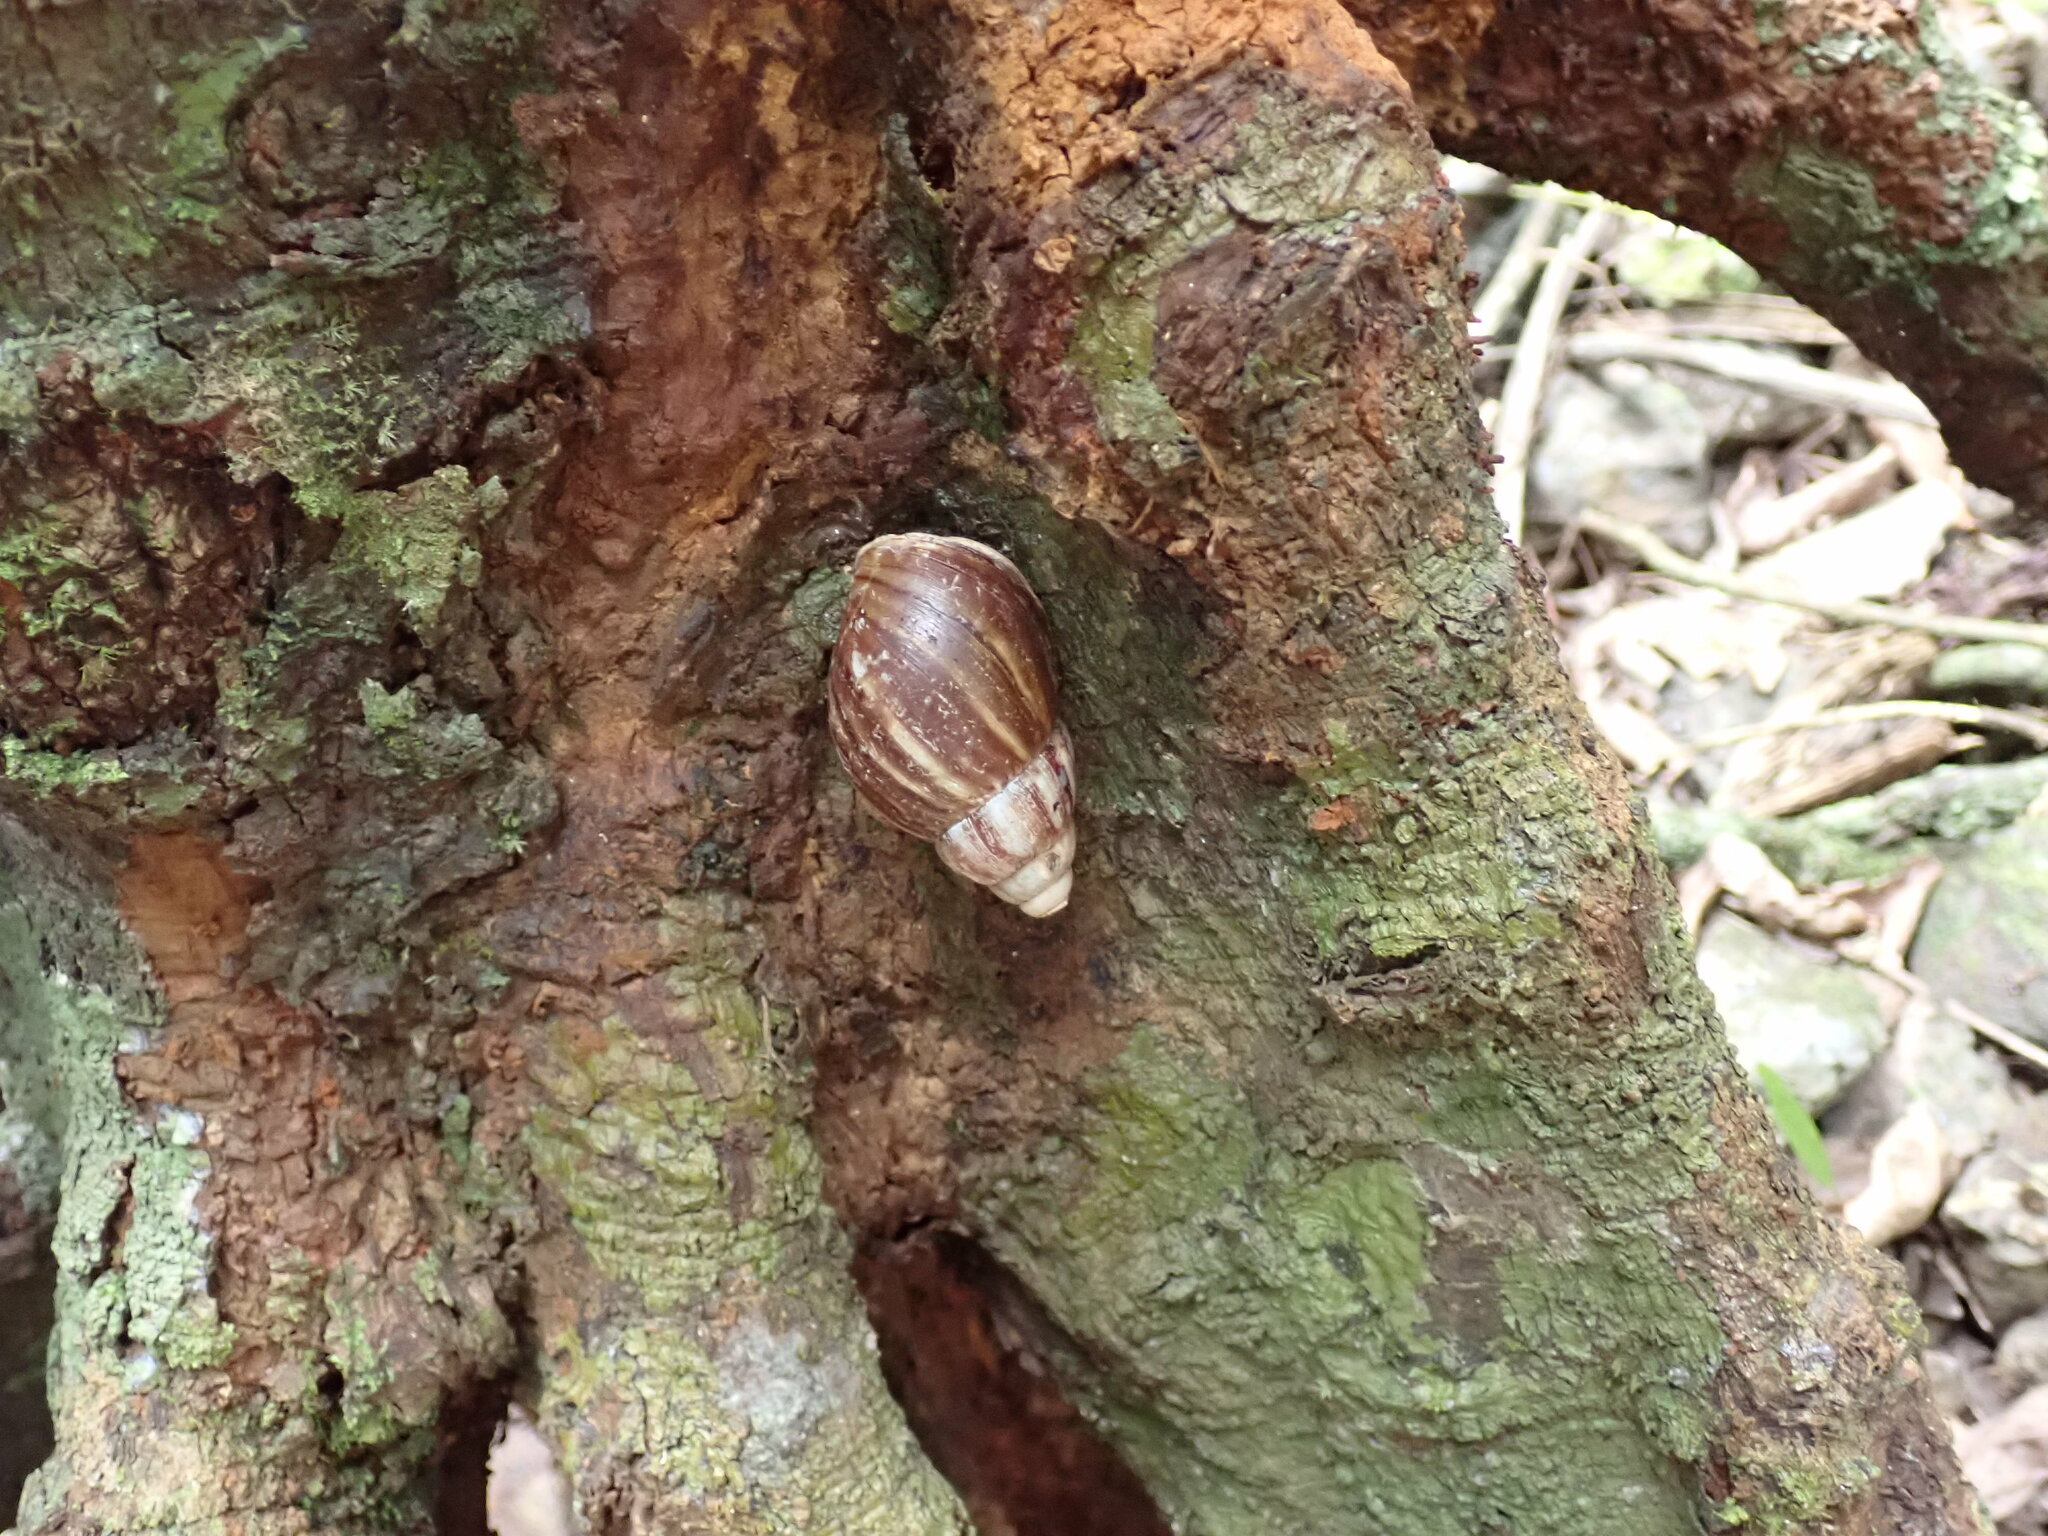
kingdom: Animalia
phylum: Mollusca
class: Gastropoda
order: Stylommatophora
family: Achatinidae
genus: Lissachatina
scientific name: Lissachatina fulica
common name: Giant african snail
